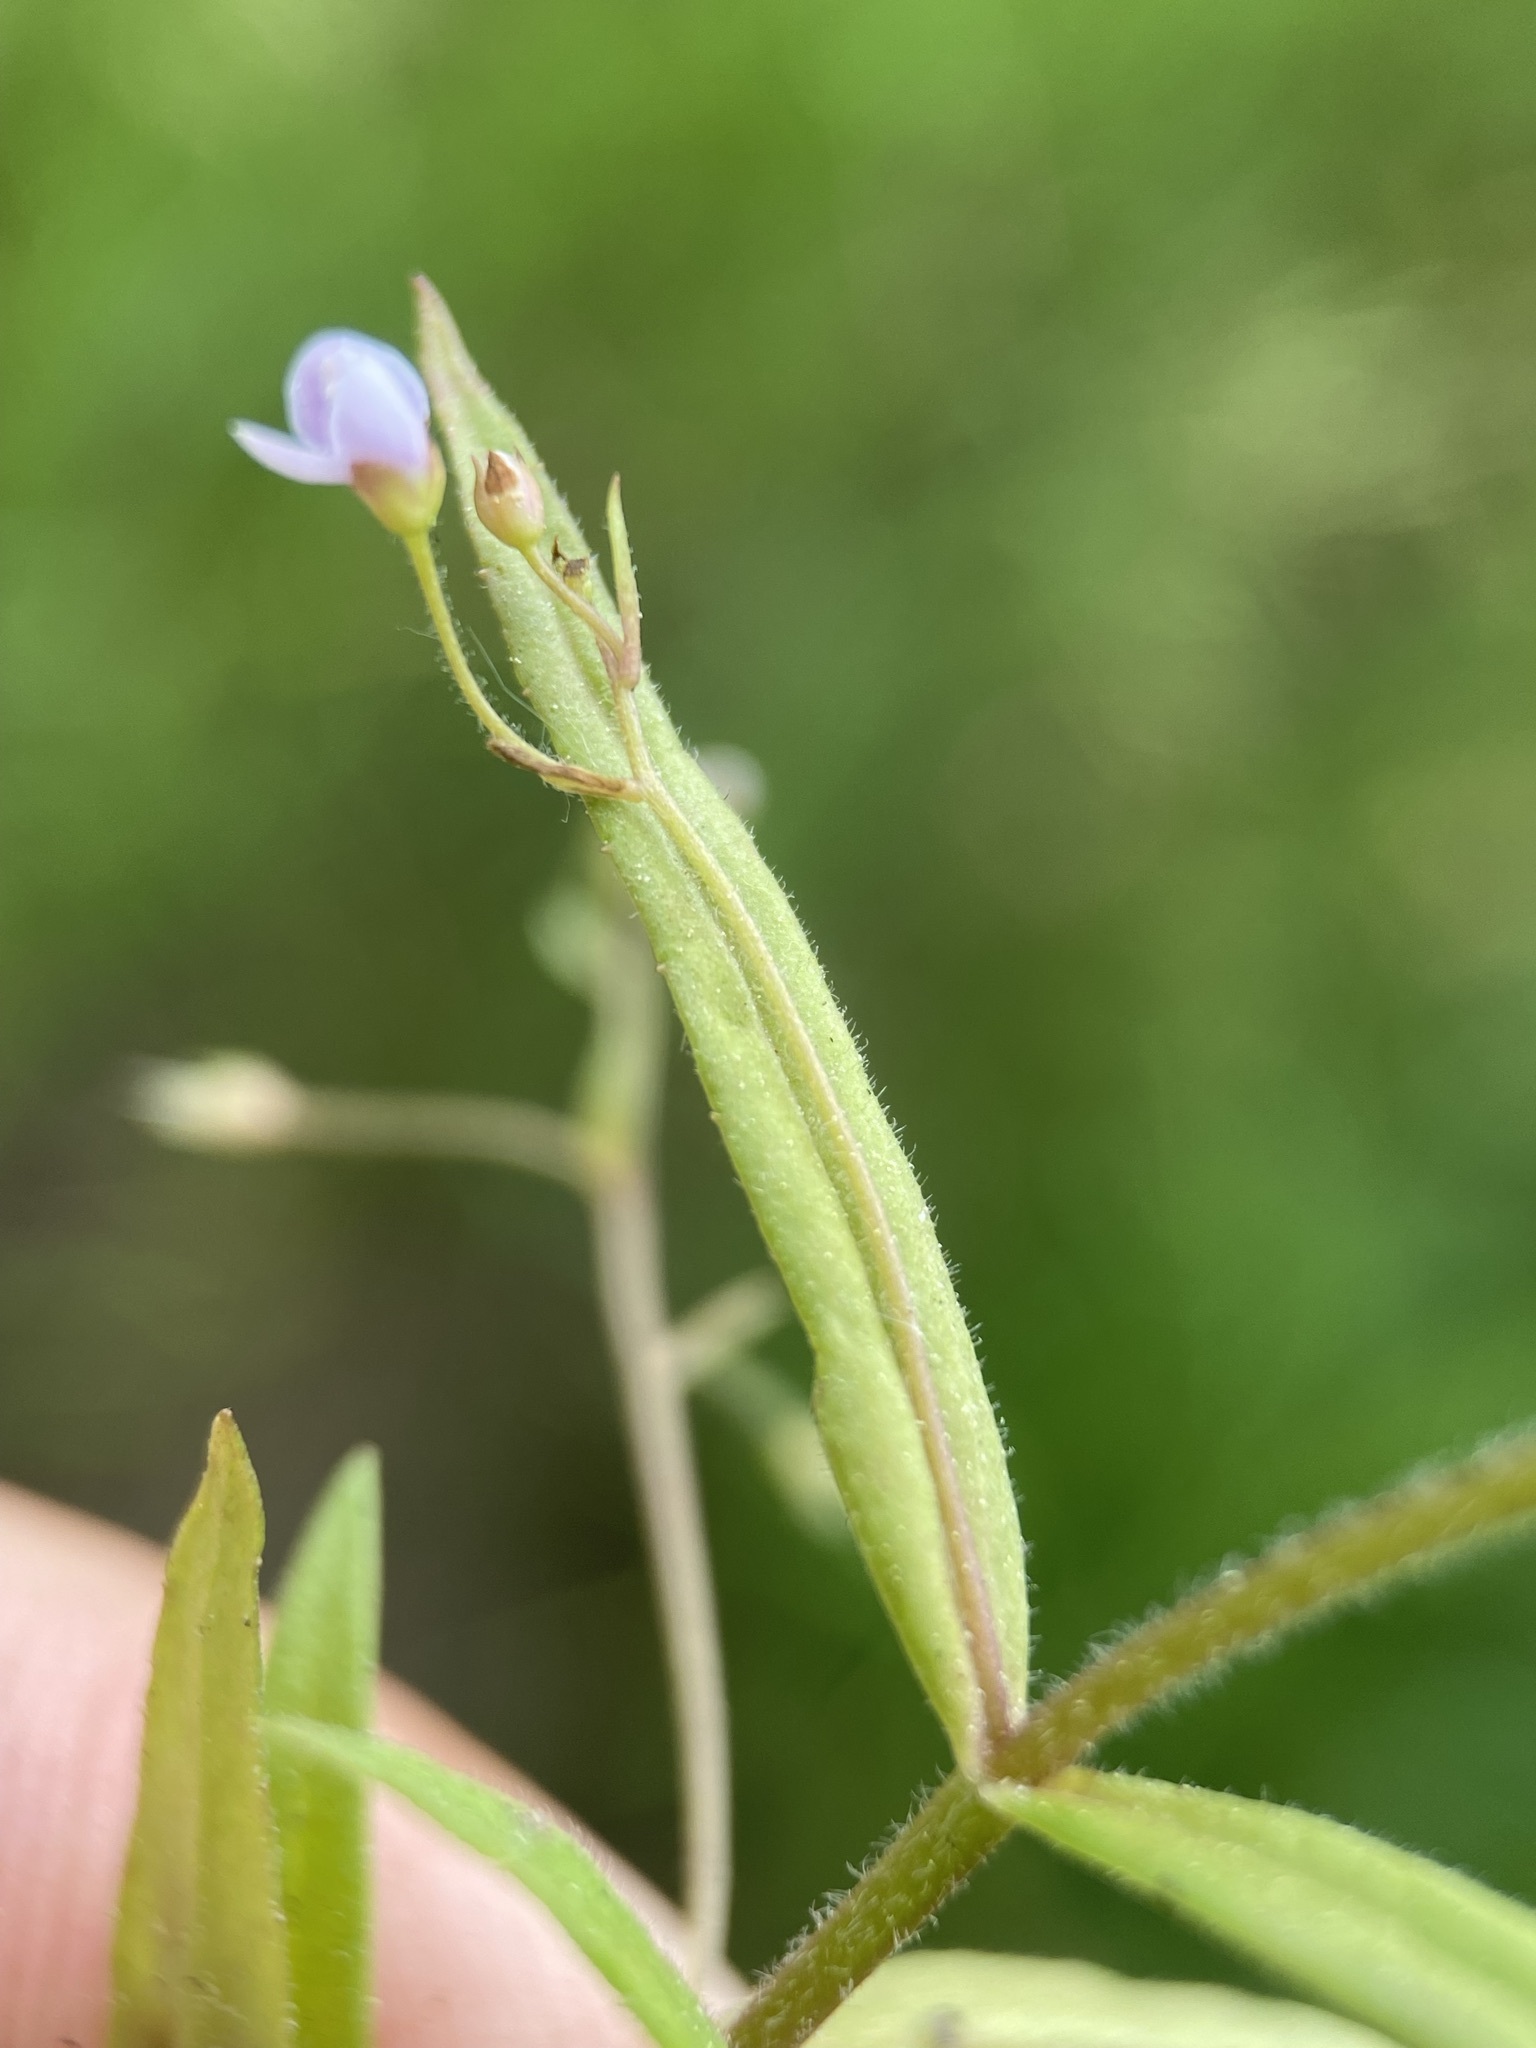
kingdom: Plantae
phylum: Tracheophyta
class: Magnoliopsida
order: Lamiales
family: Plantaginaceae
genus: Veronica
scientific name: Veronica scutellata
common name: Marsh speedwell
